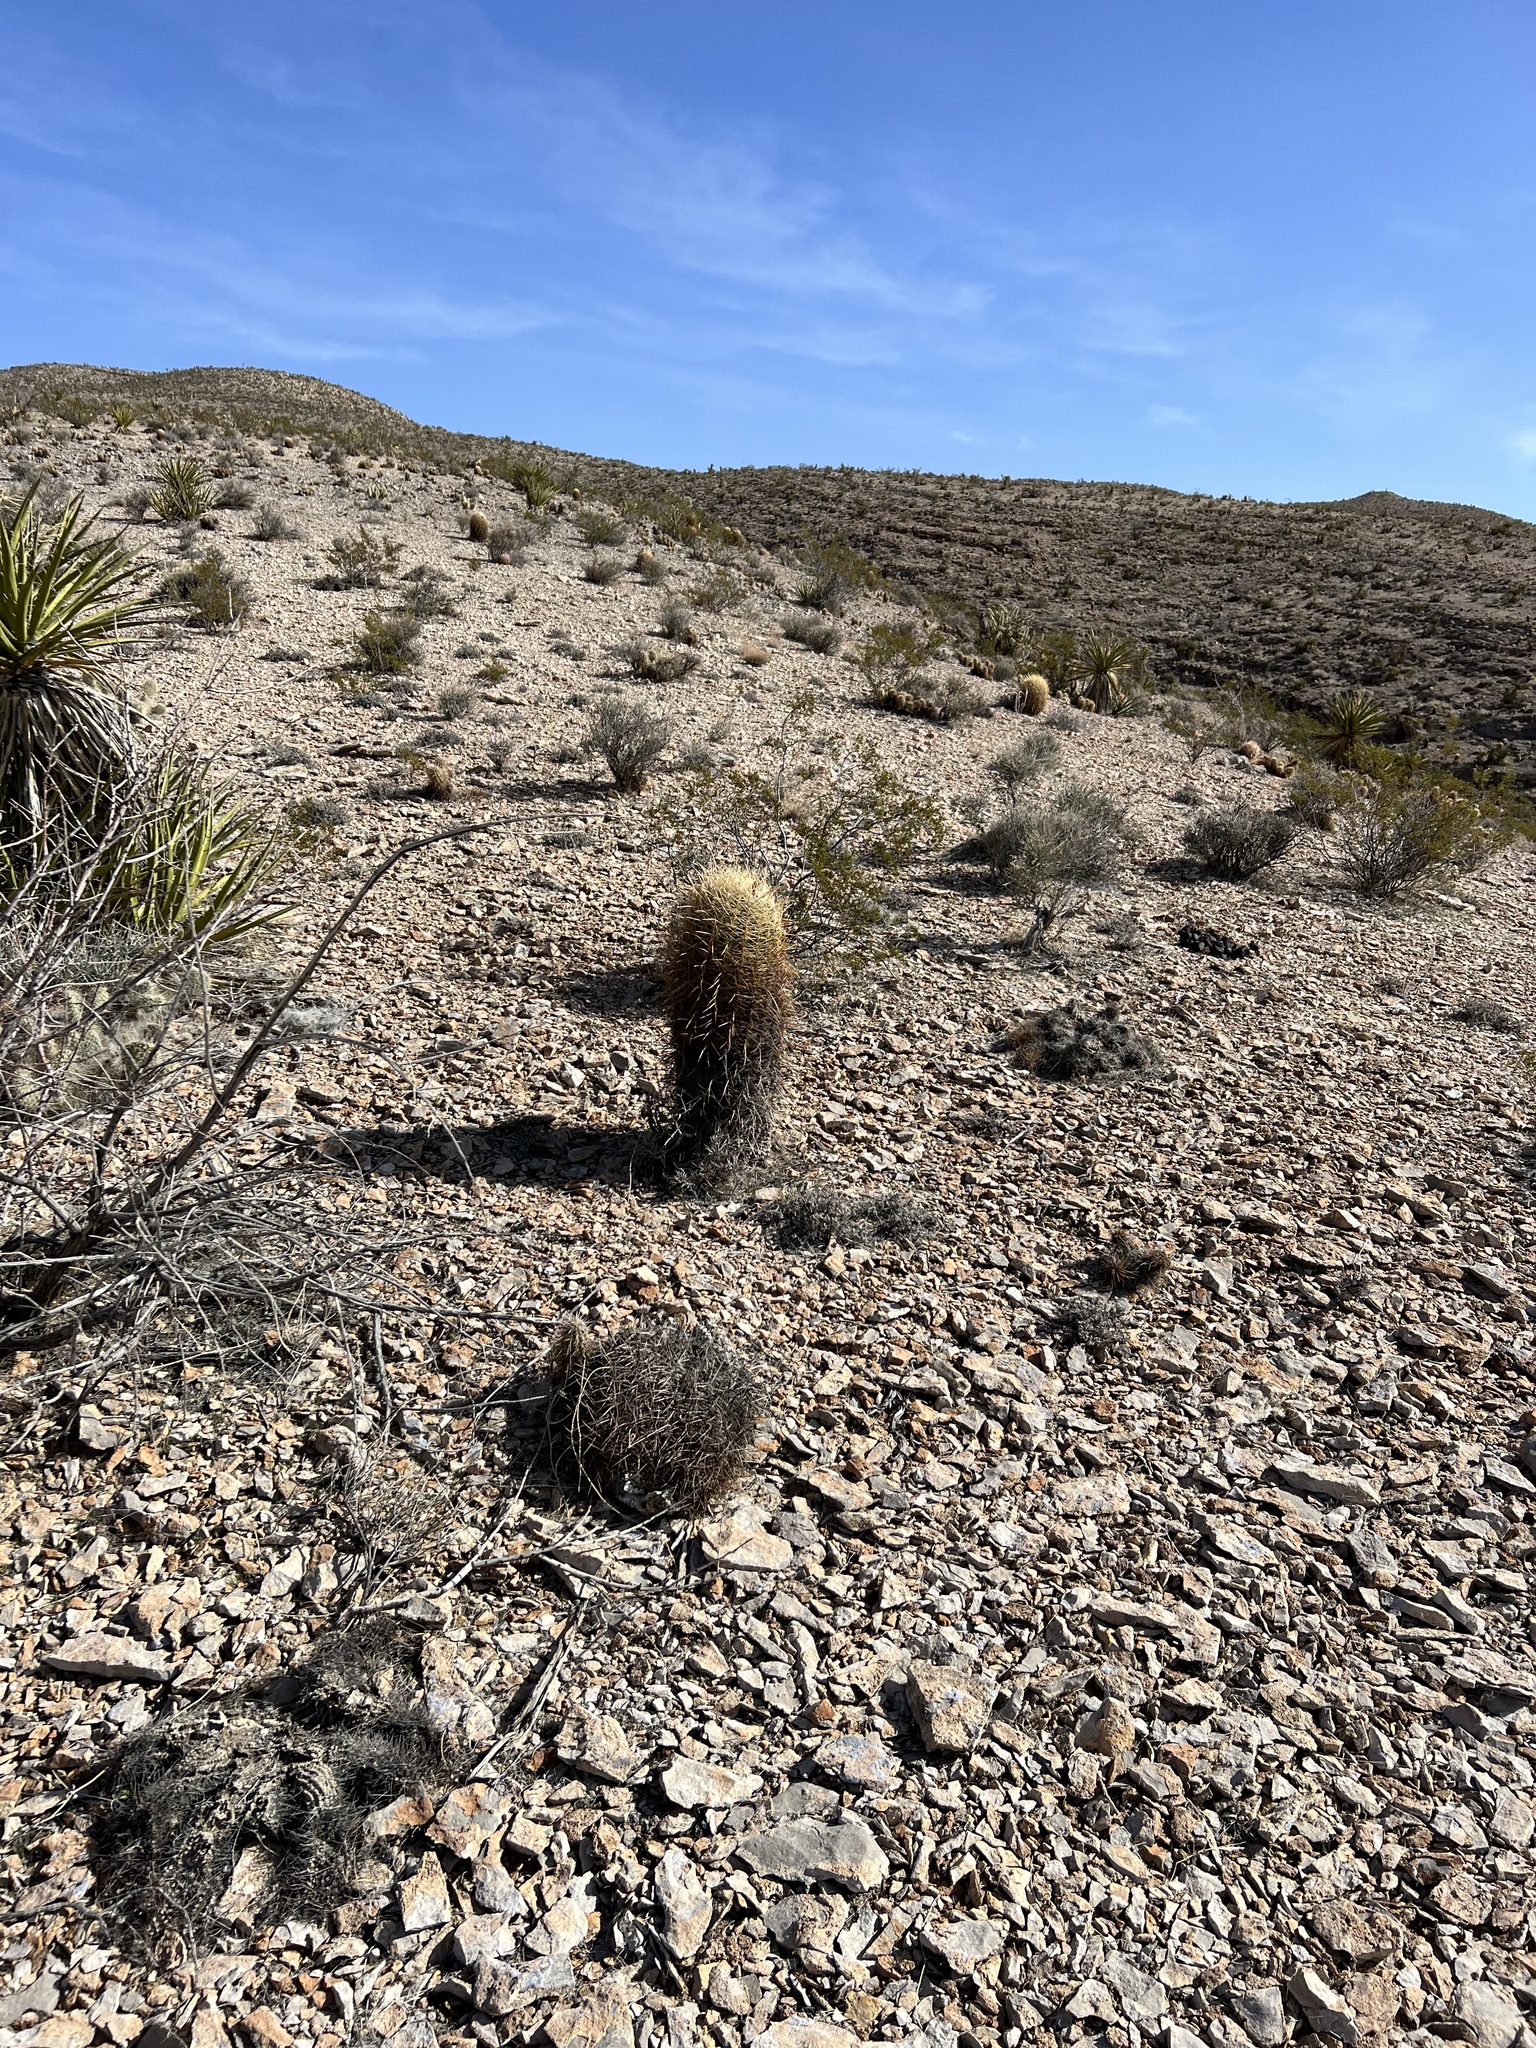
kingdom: Plantae
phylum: Tracheophyta
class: Magnoliopsida
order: Caryophyllales
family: Cactaceae
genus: Ferocactus
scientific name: Ferocactus cylindraceus
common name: California barrel cactus
